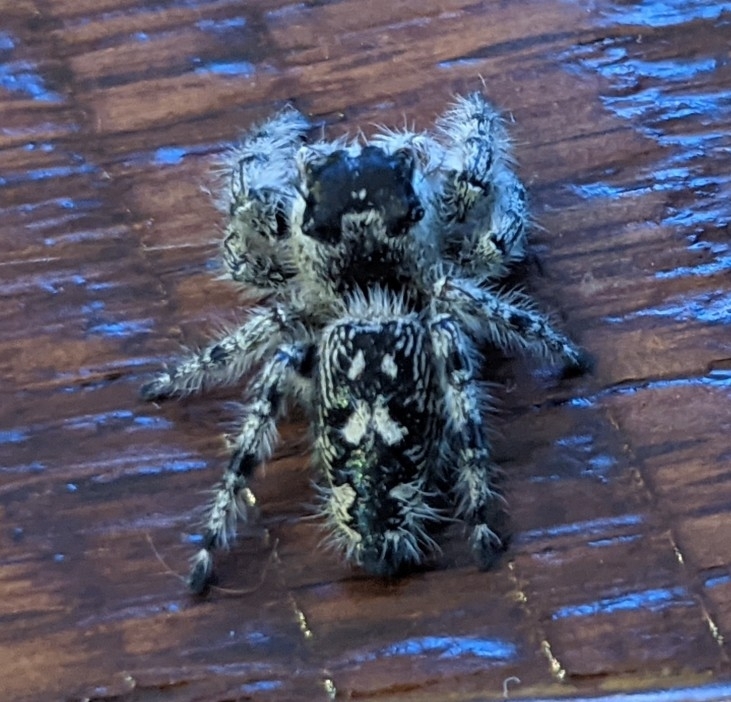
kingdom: Animalia
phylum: Arthropoda
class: Arachnida
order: Araneae
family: Salticidae
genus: Phidippus
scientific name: Phidippus otiosus
